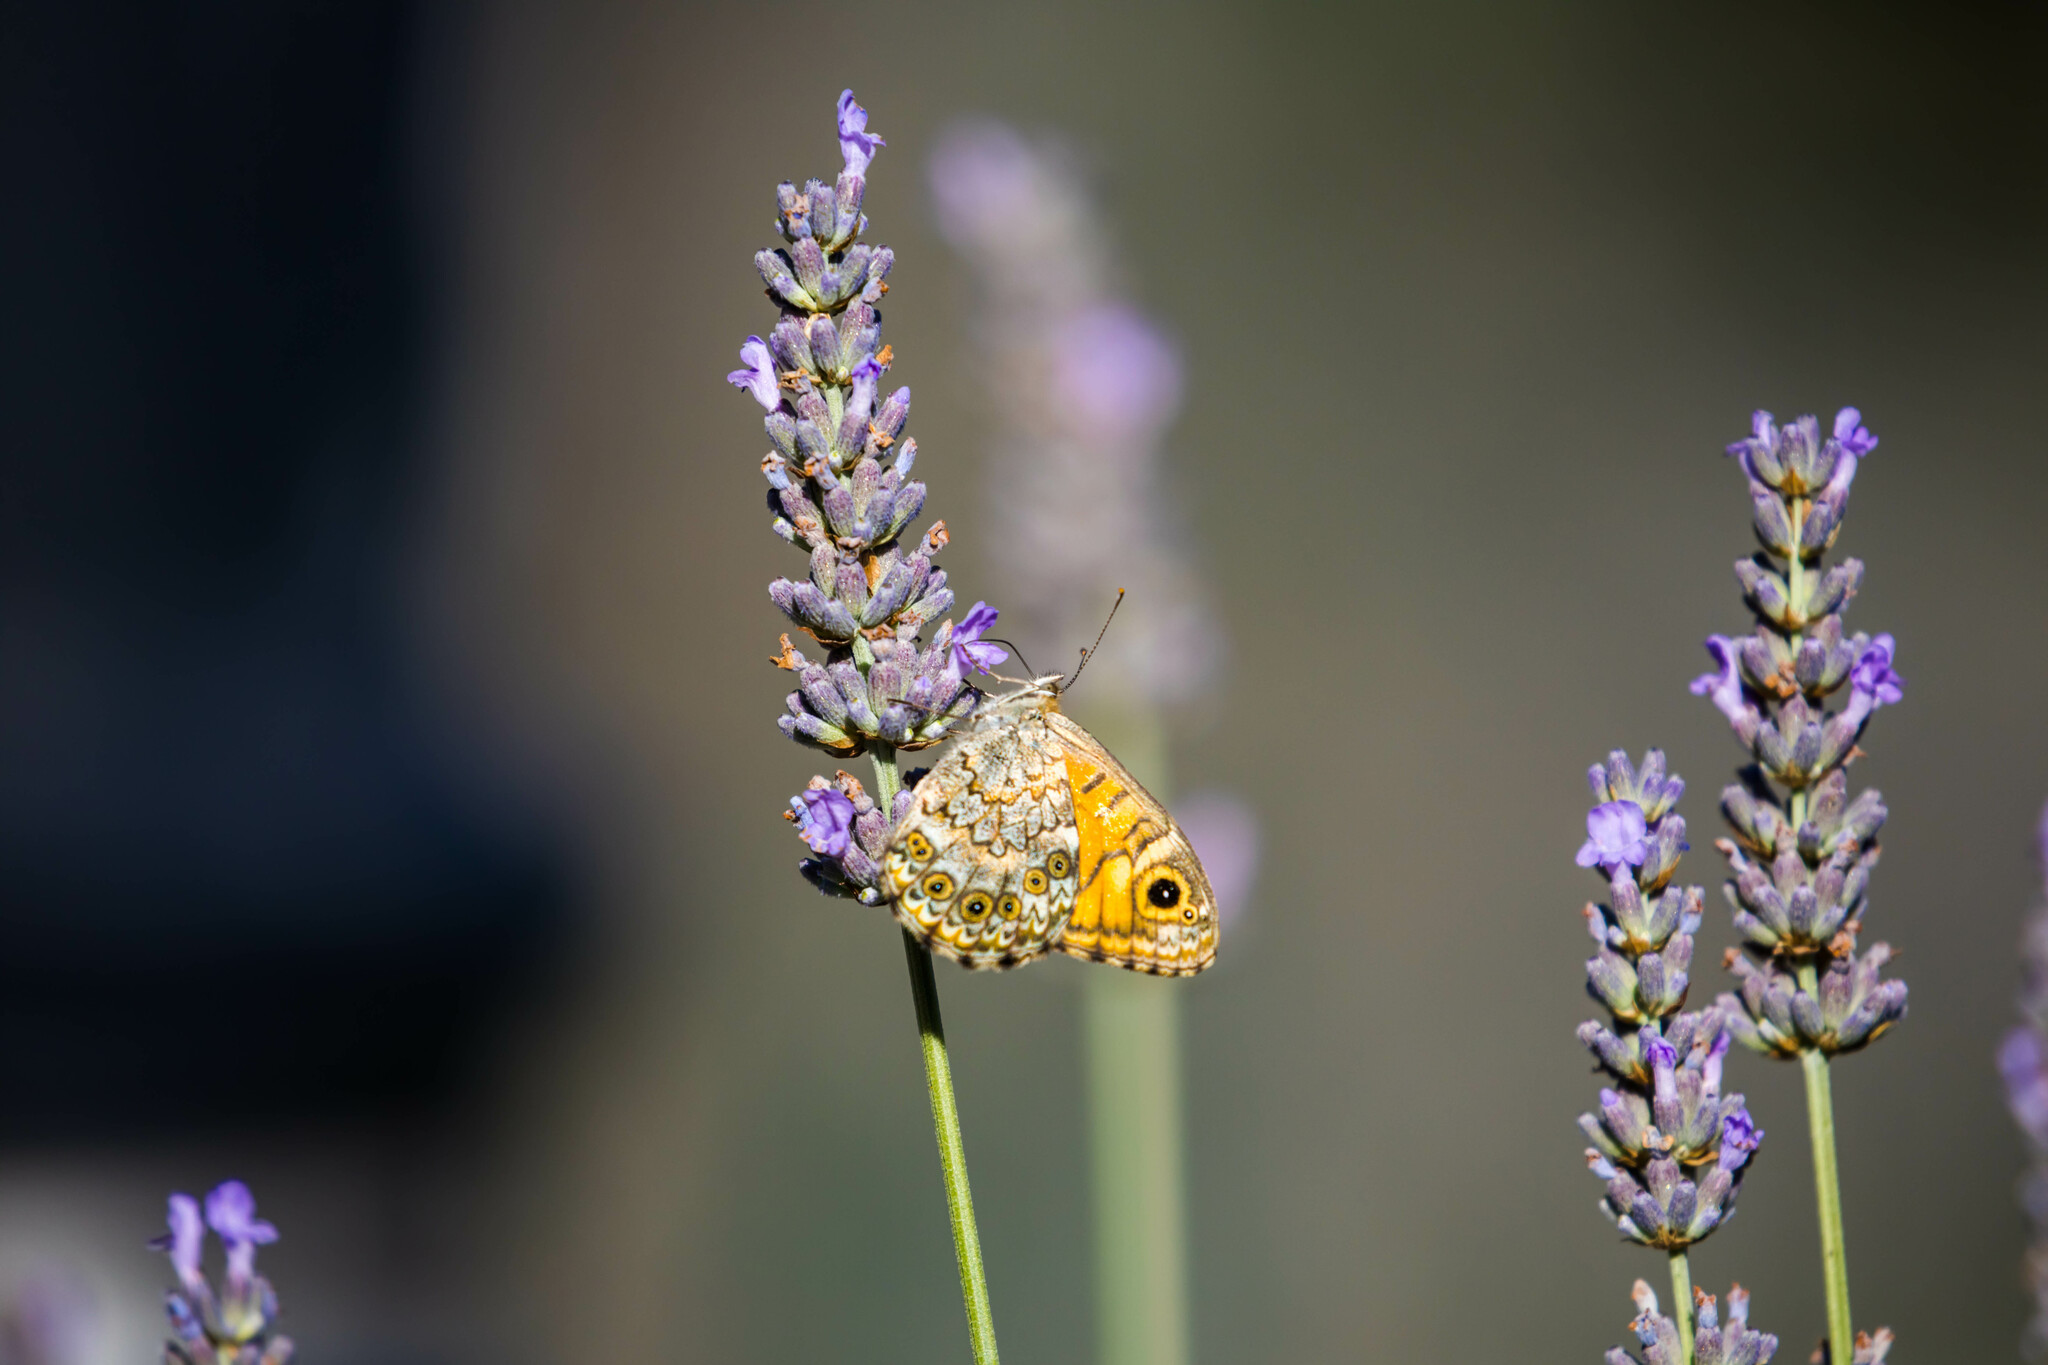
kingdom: Animalia
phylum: Arthropoda
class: Insecta
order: Lepidoptera
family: Nymphalidae
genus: Pararge
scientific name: Pararge Lasiommata megera
